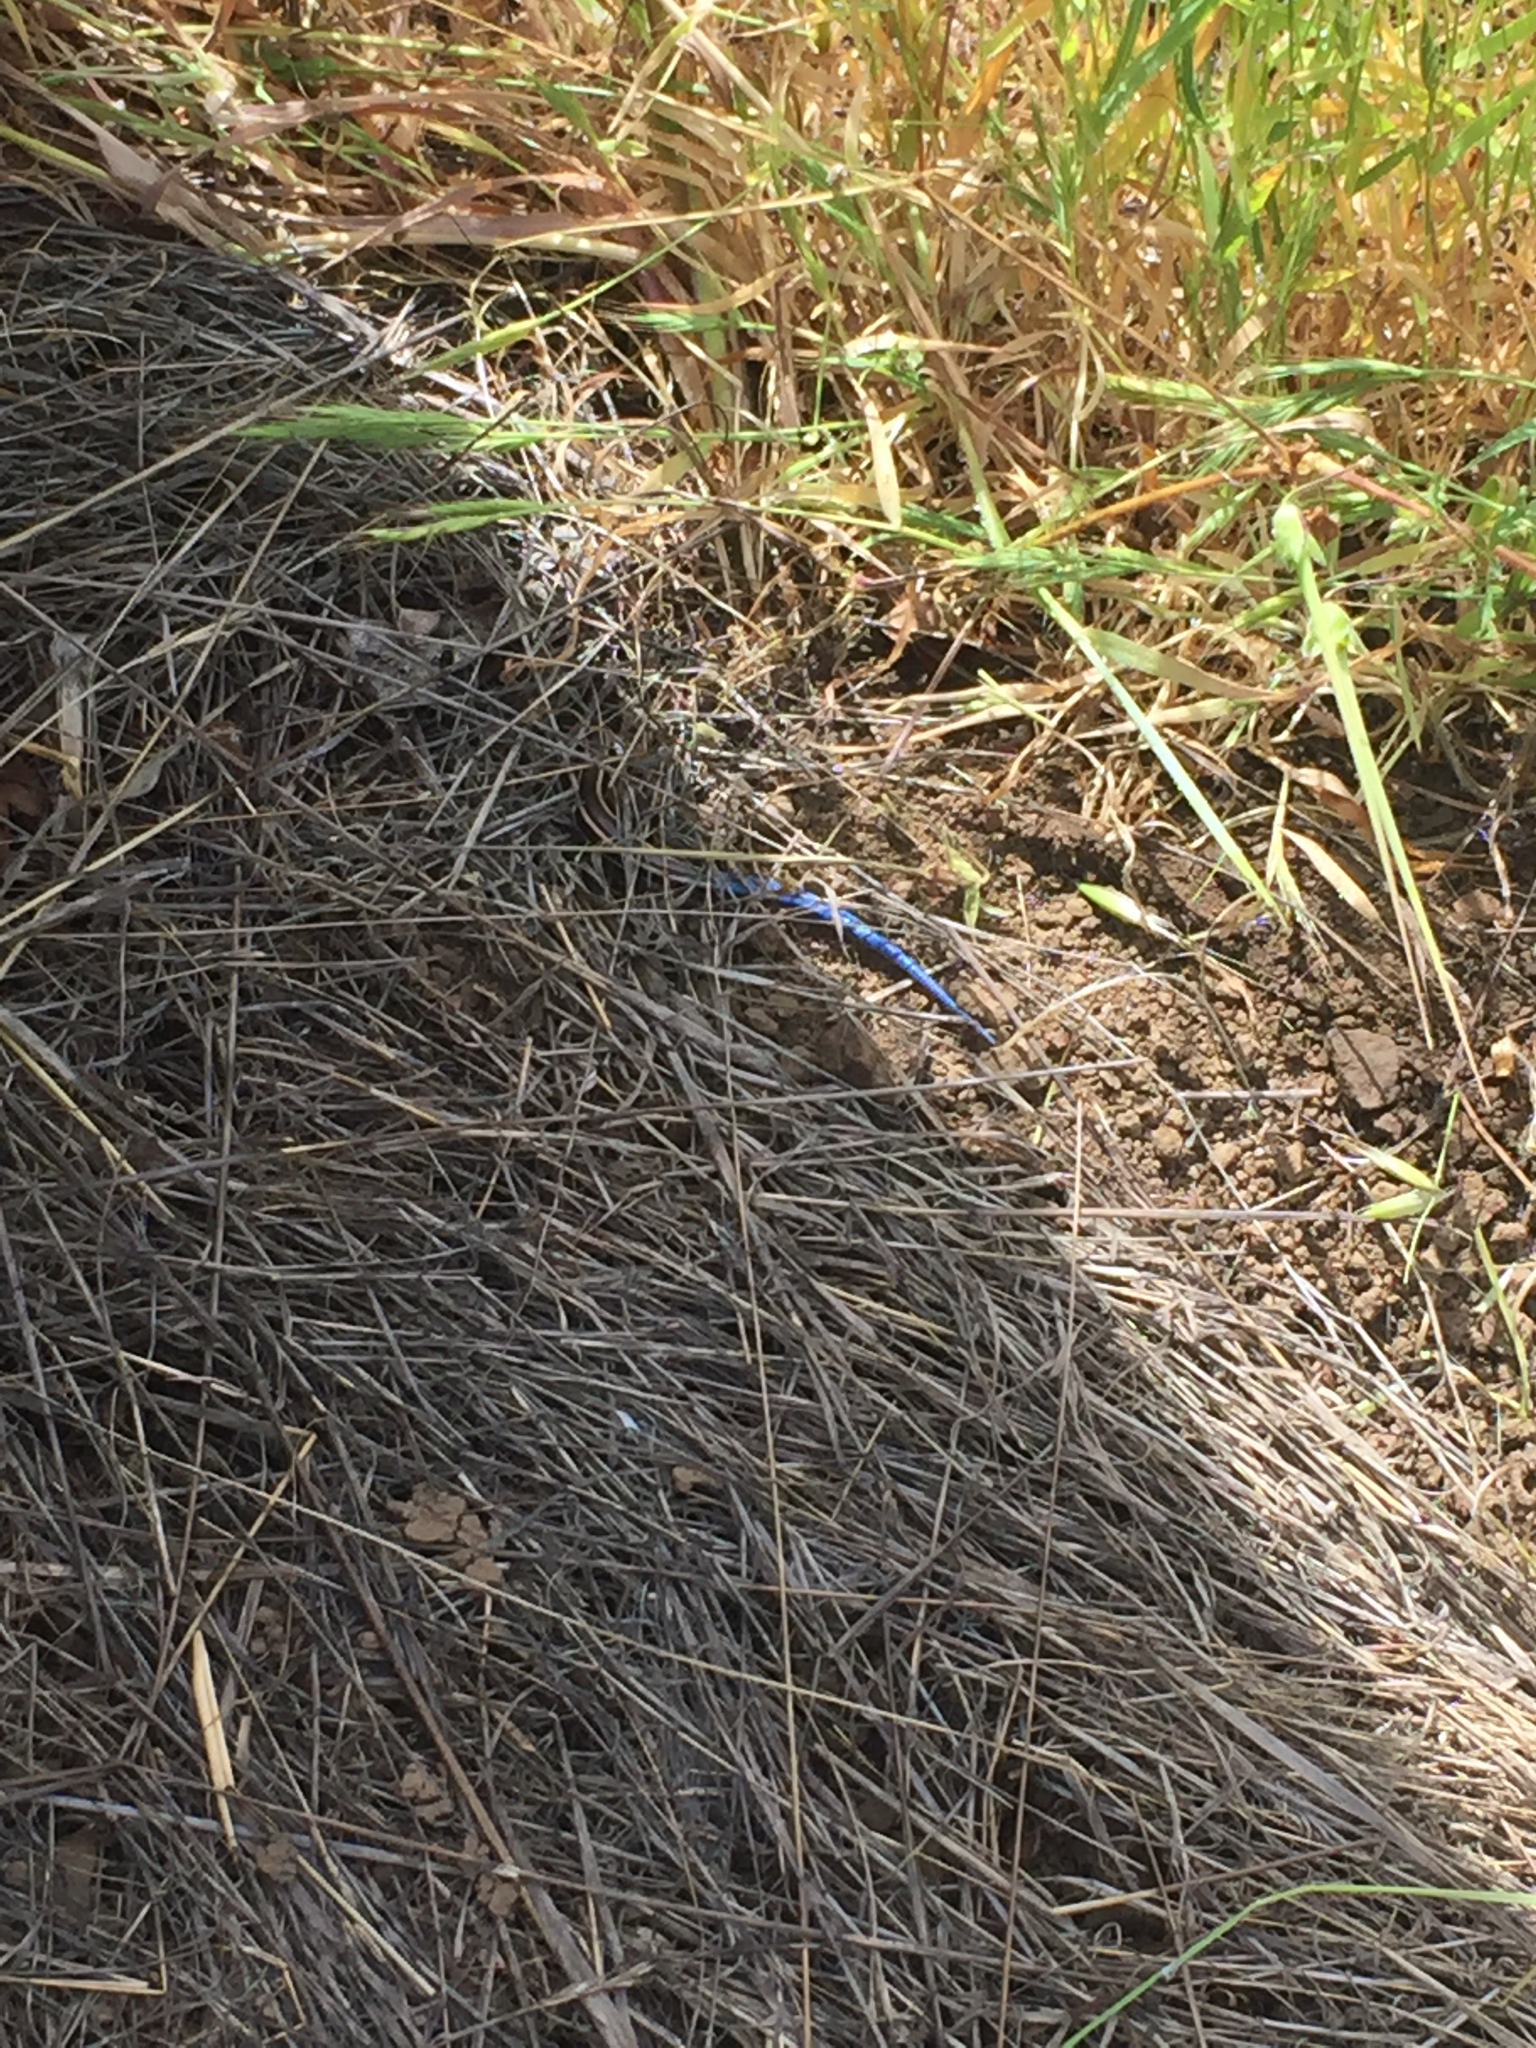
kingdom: Animalia
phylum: Chordata
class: Squamata
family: Scincidae
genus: Plestiodon
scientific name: Plestiodon skiltonianus
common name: Coronado island skink [interparietalis]
